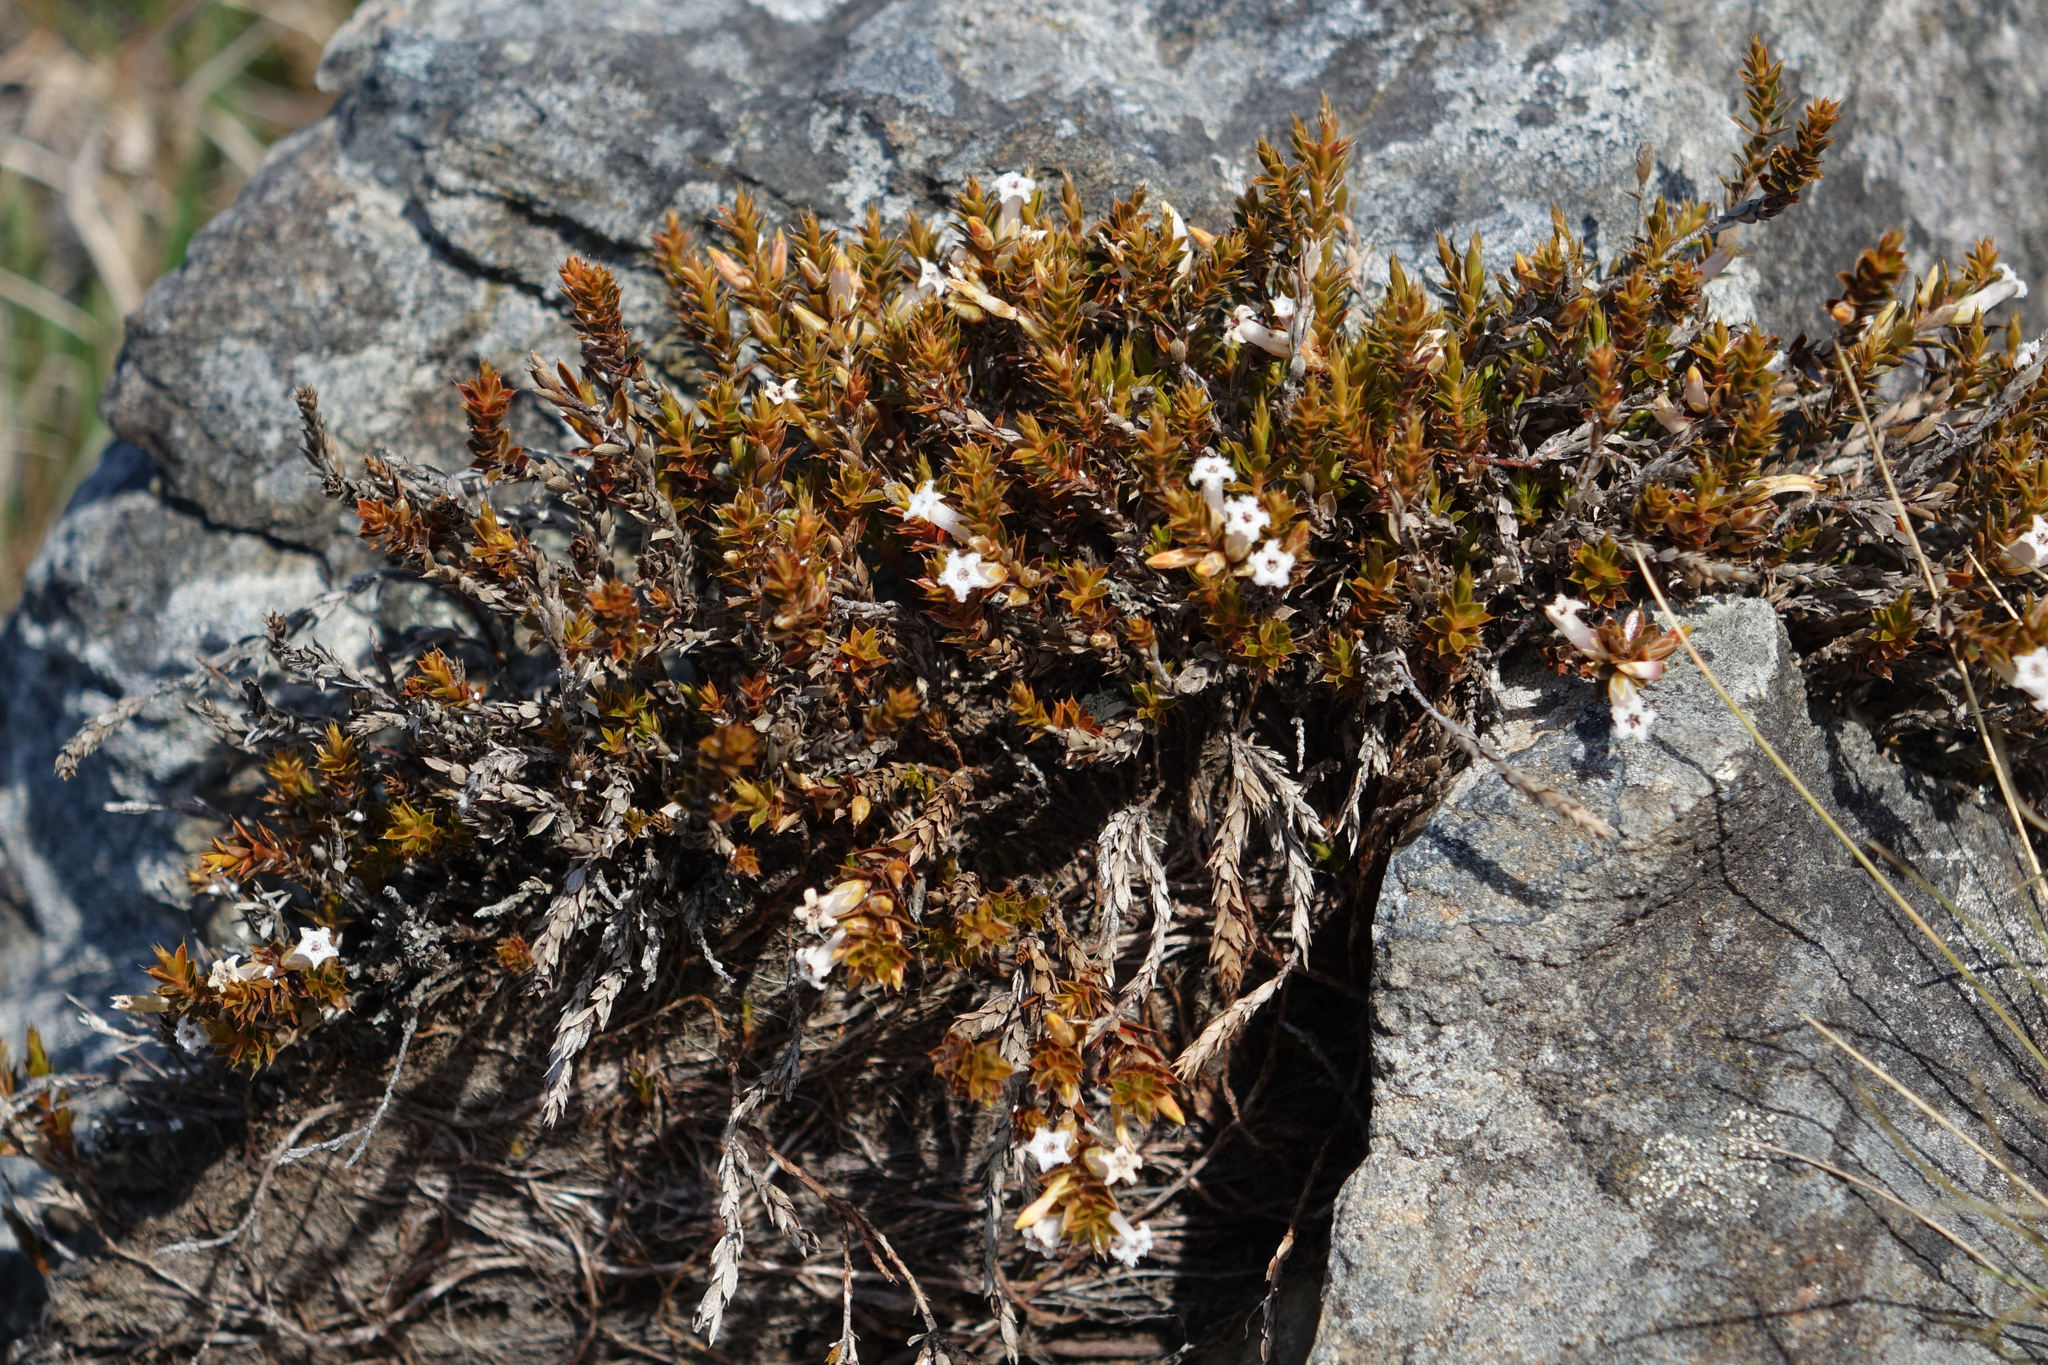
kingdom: Plantae
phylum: Tracheophyta
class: Magnoliopsida
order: Ericales
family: Ericaceae
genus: Styphelia
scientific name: Styphelia nesophila
